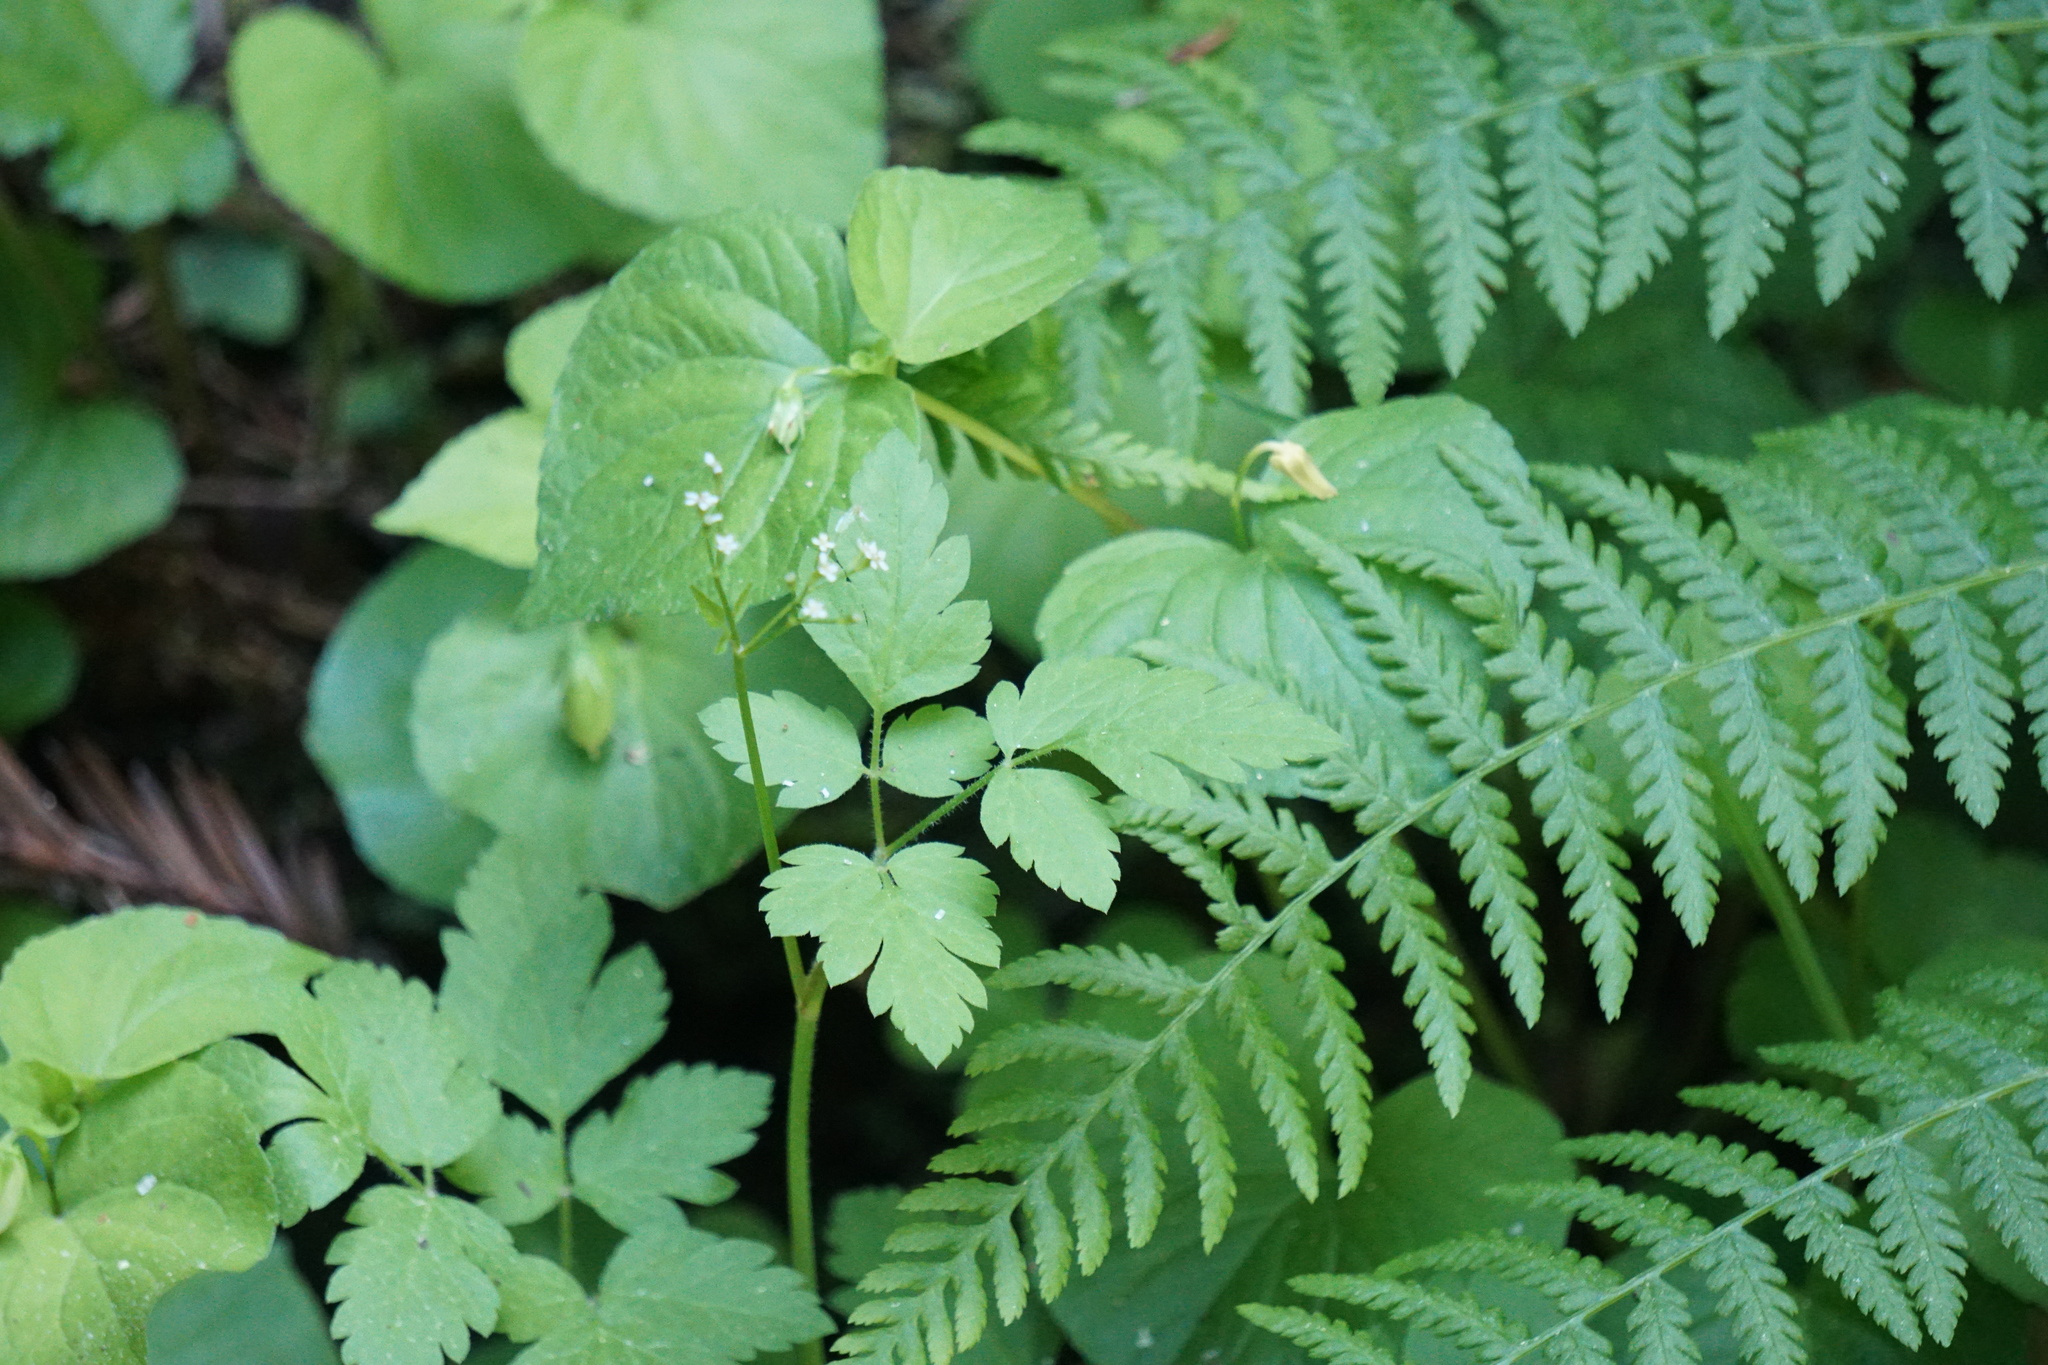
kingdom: Plantae
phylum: Tracheophyta
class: Magnoliopsida
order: Apiales
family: Apiaceae
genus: Osmorhiza
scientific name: Osmorhiza berteroi
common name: Mountain sweet cicely
